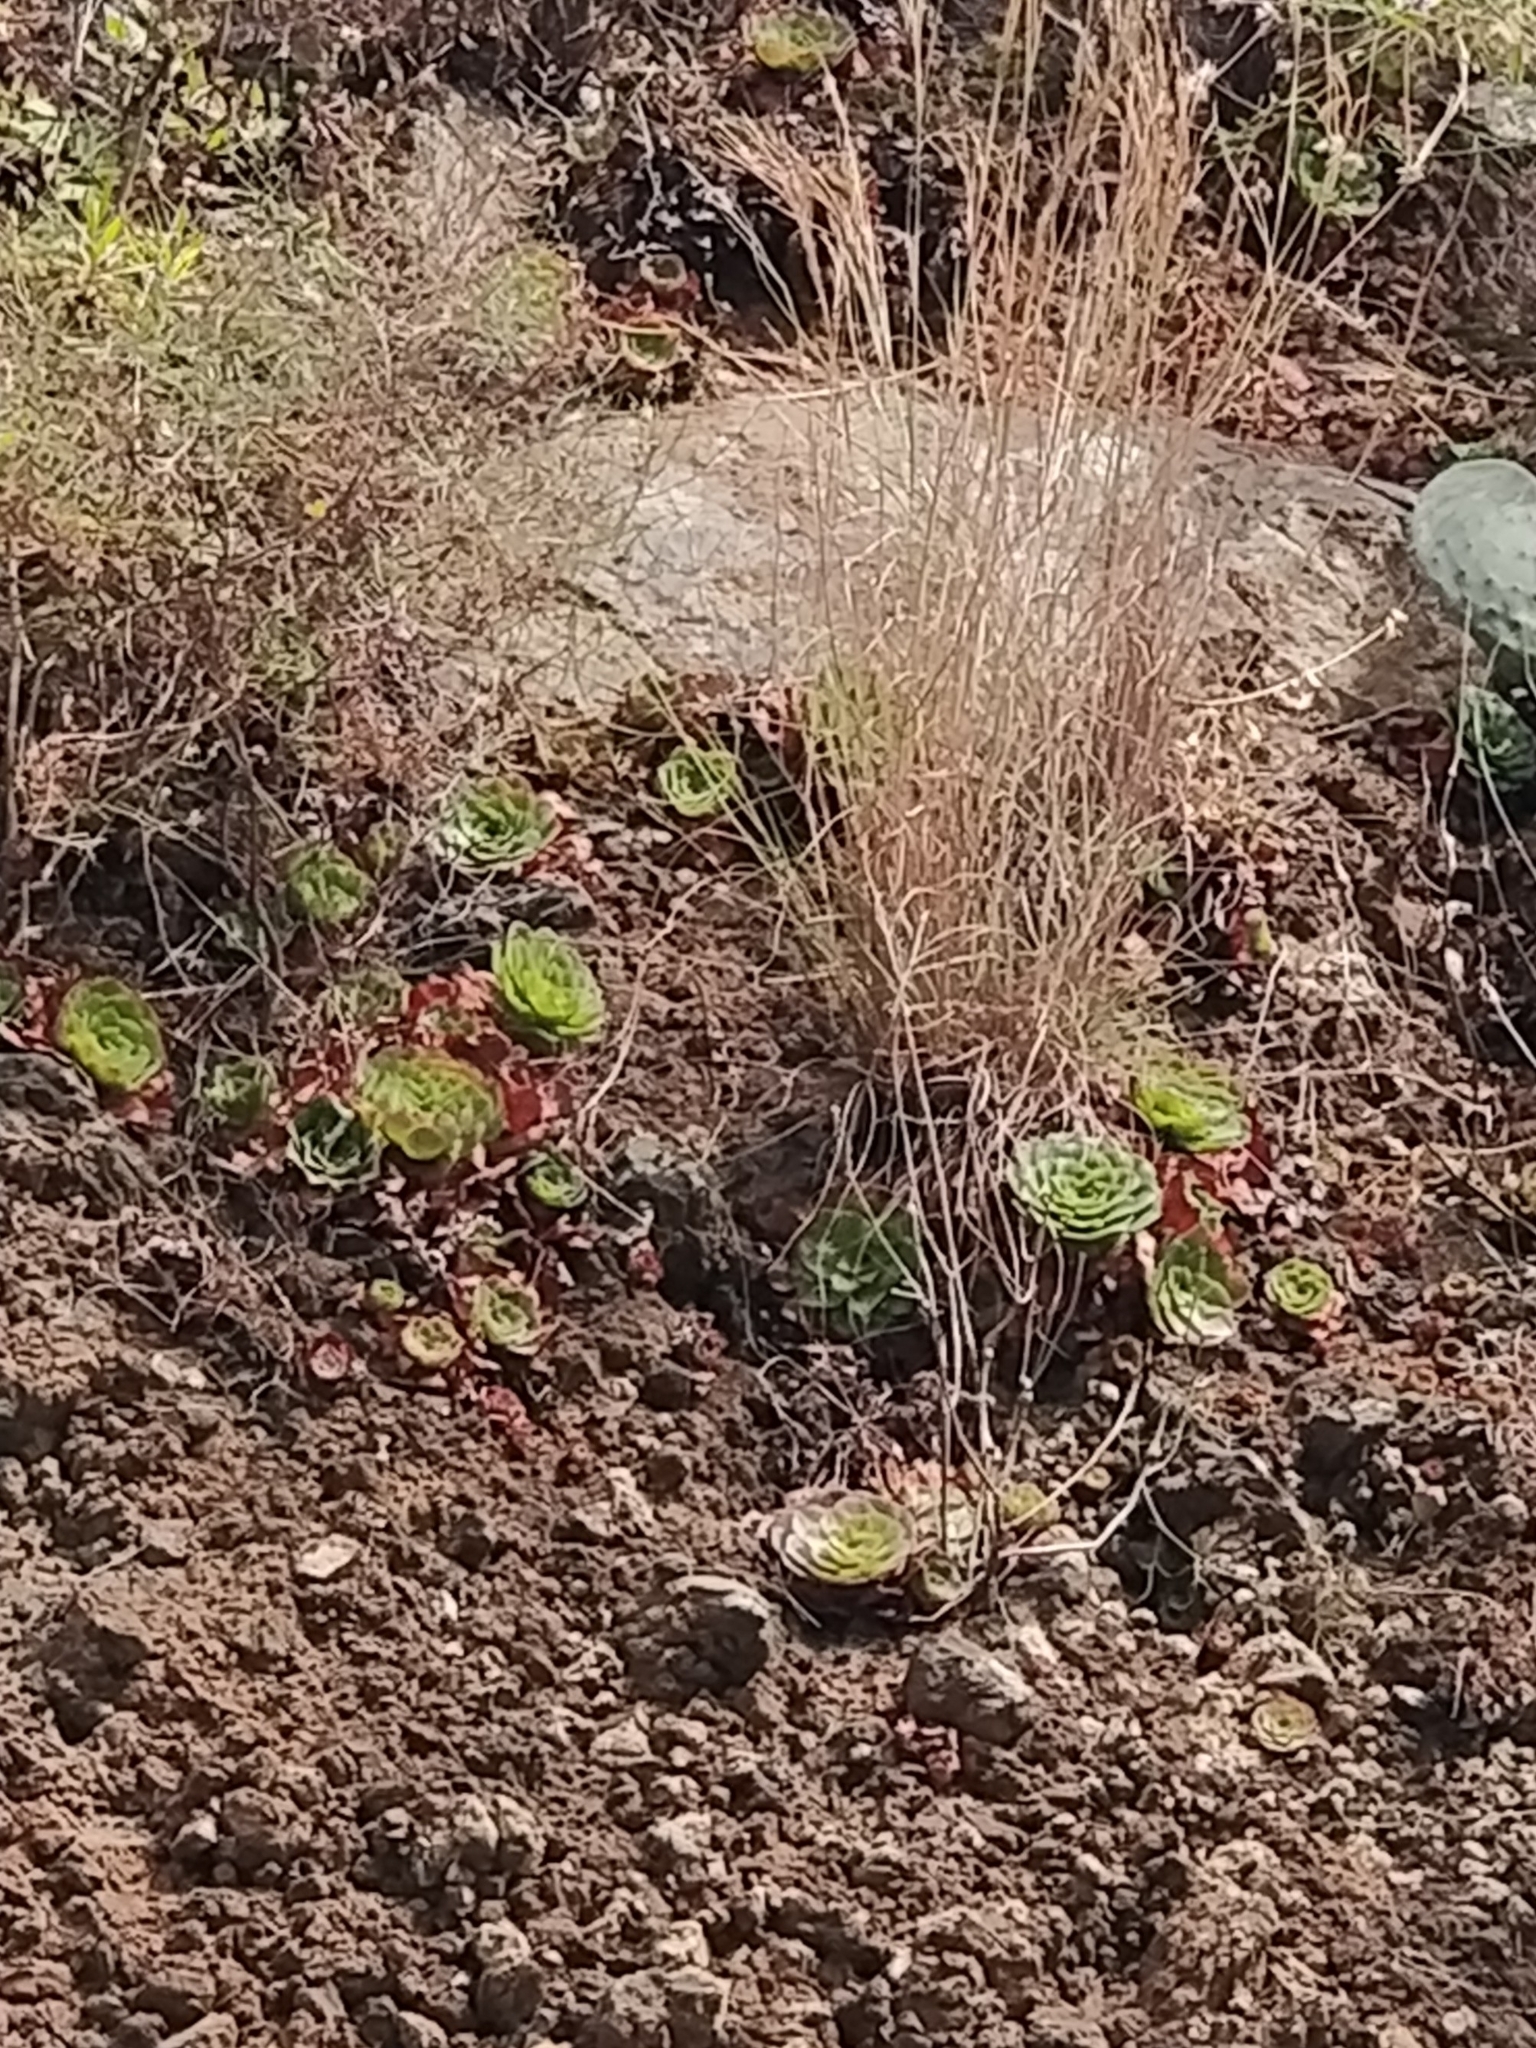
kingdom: Plantae
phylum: Tracheophyta
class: Magnoliopsida
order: Saxifragales
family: Crassulaceae
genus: Aeonium
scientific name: Aeonium glandulosum
